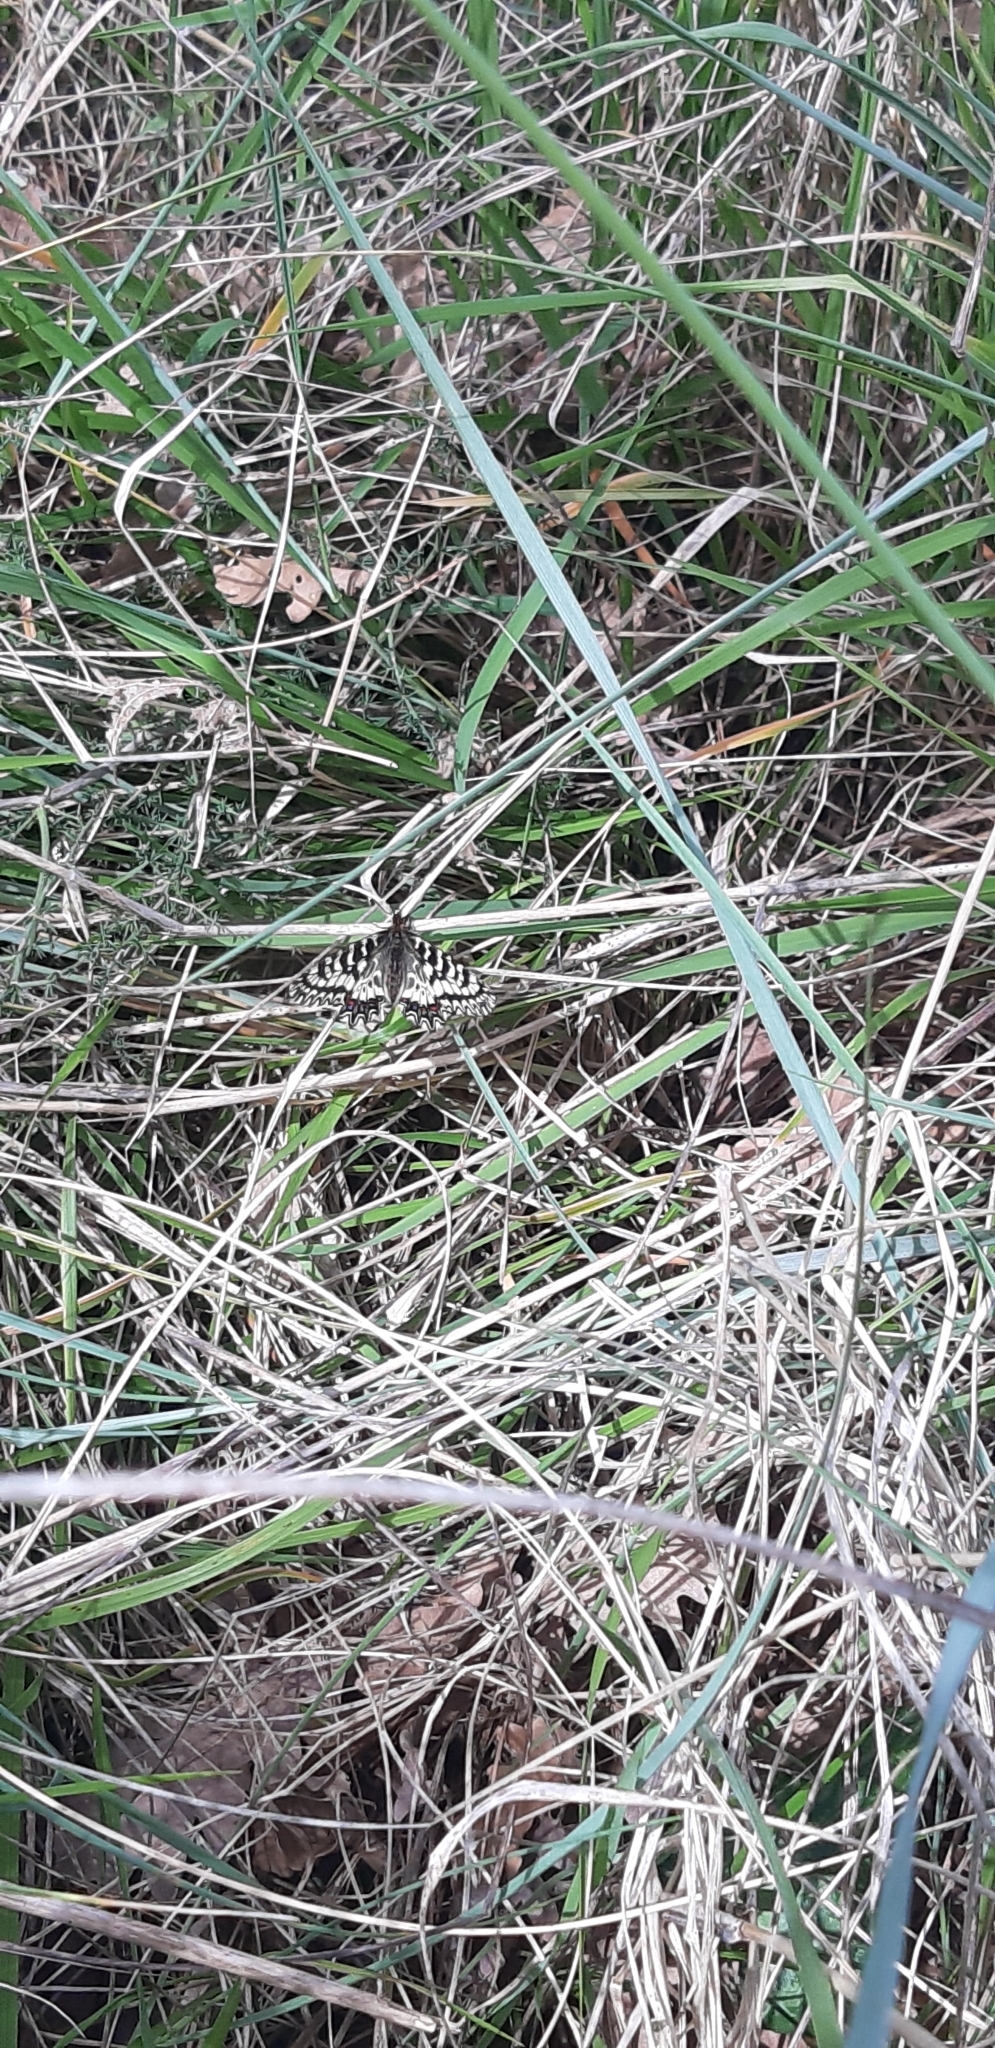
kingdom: Animalia
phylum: Arthropoda
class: Insecta
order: Lepidoptera
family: Papilionidae
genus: Zerynthia
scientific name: Zerynthia cassandra
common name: Italian festoon
